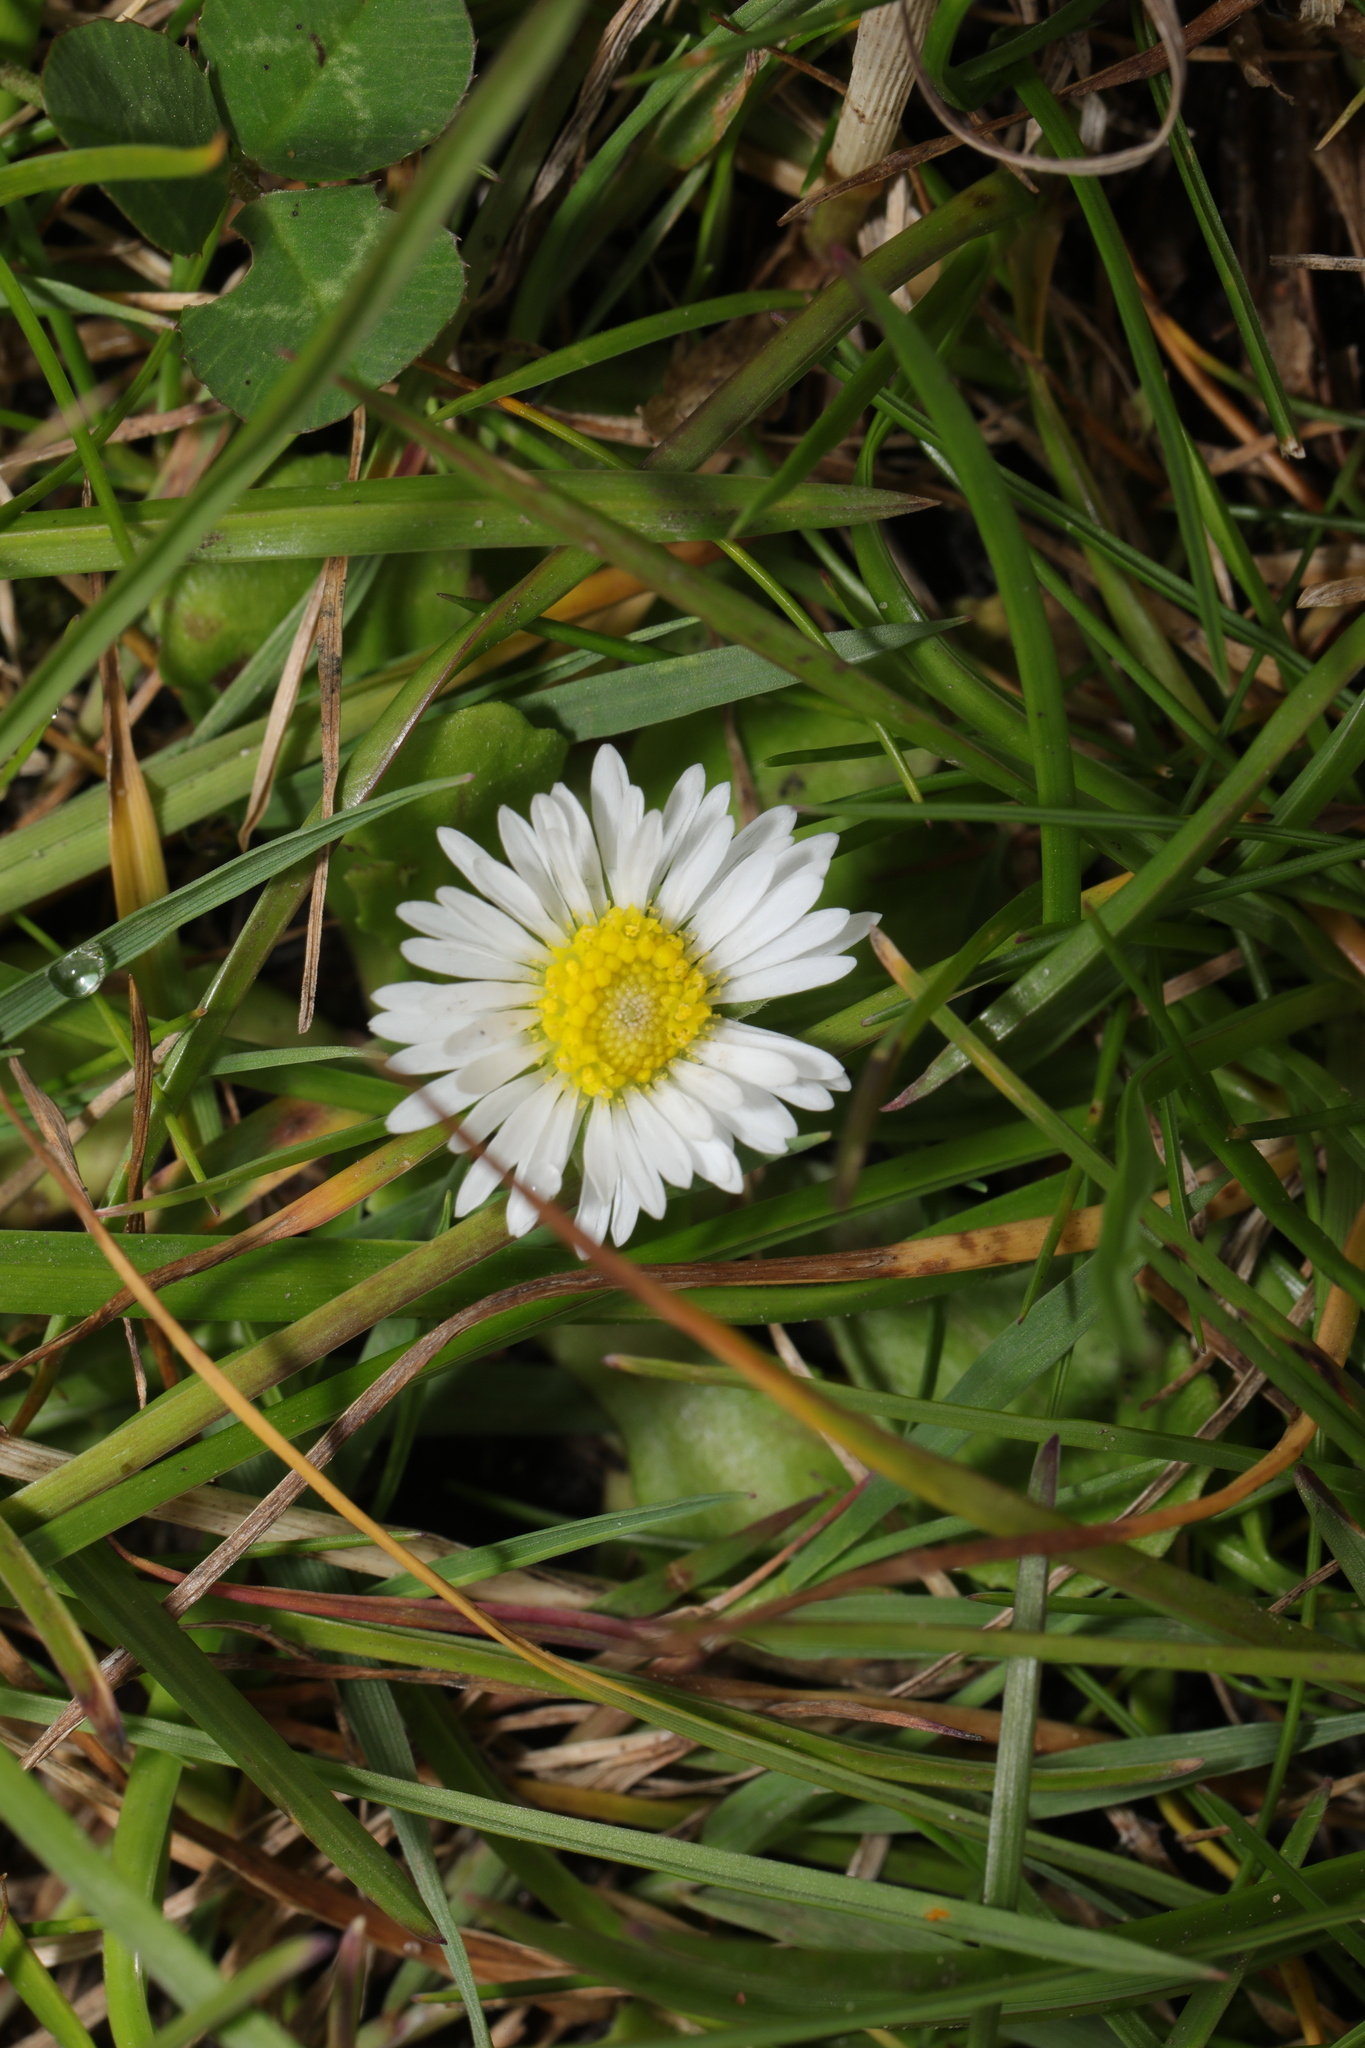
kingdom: Plantae
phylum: Tracheophyta
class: Magnoliopsida
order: Asterales
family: Asteraceae
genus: Bellis
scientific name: Bellis perennis
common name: Lawndaisy
